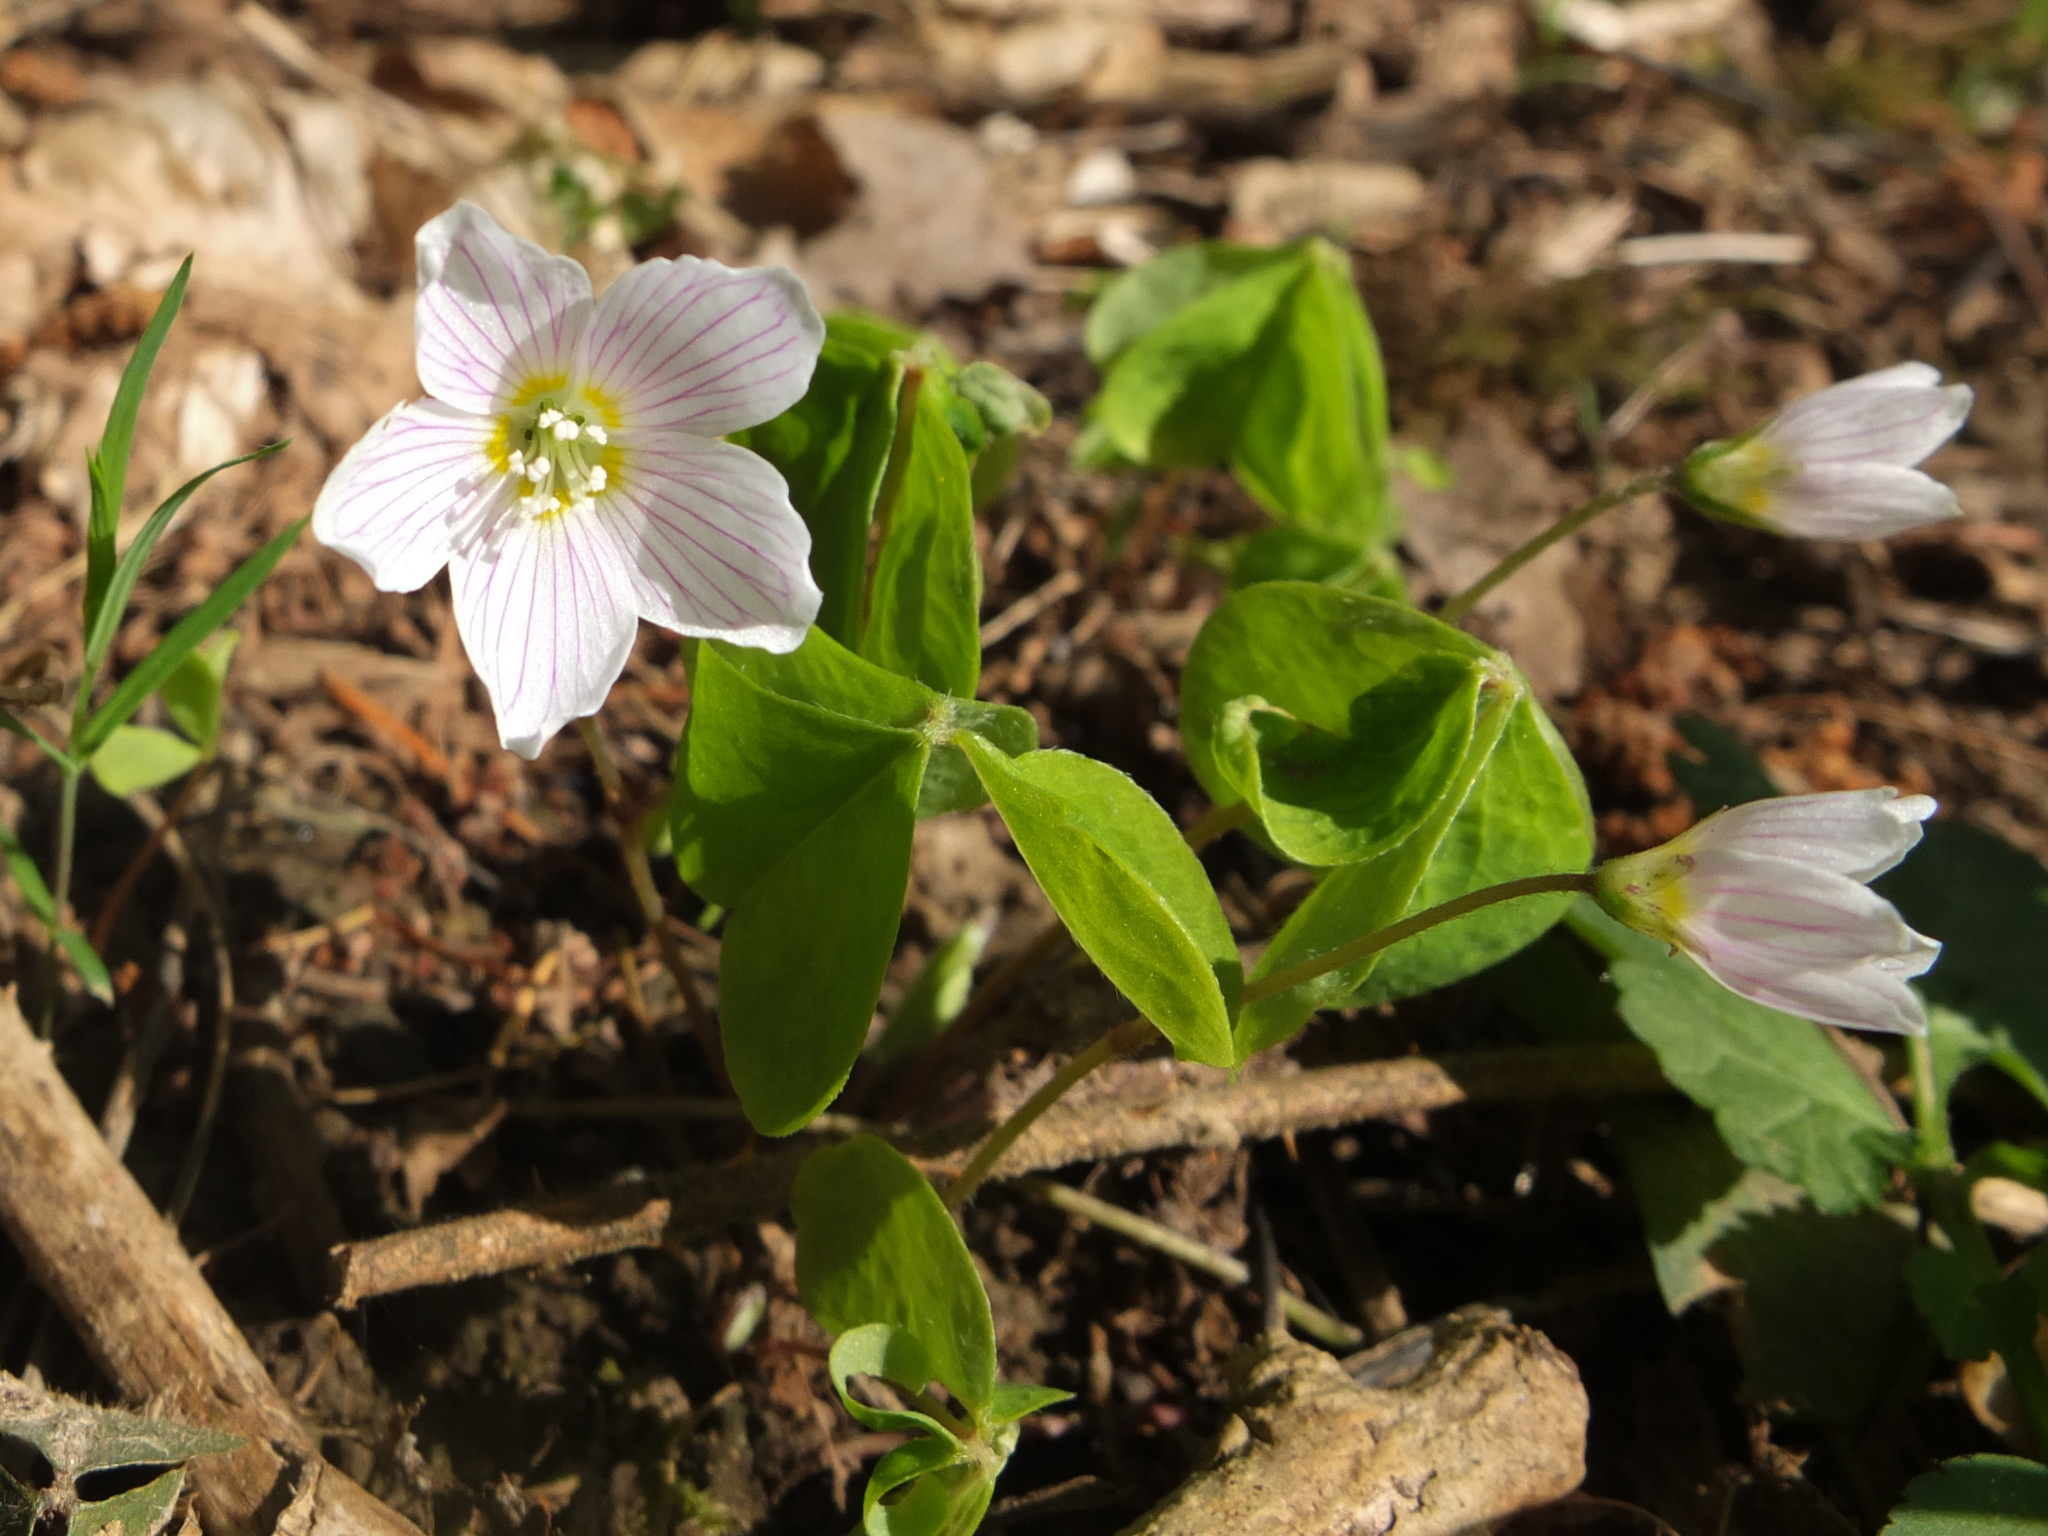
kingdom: Plantae
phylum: Tracheophyta
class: Magnoliopsida
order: Oxalidales
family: Oxalidaceae
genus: Oxalis
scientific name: Oxalis acetosella
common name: Wood-sorrel
